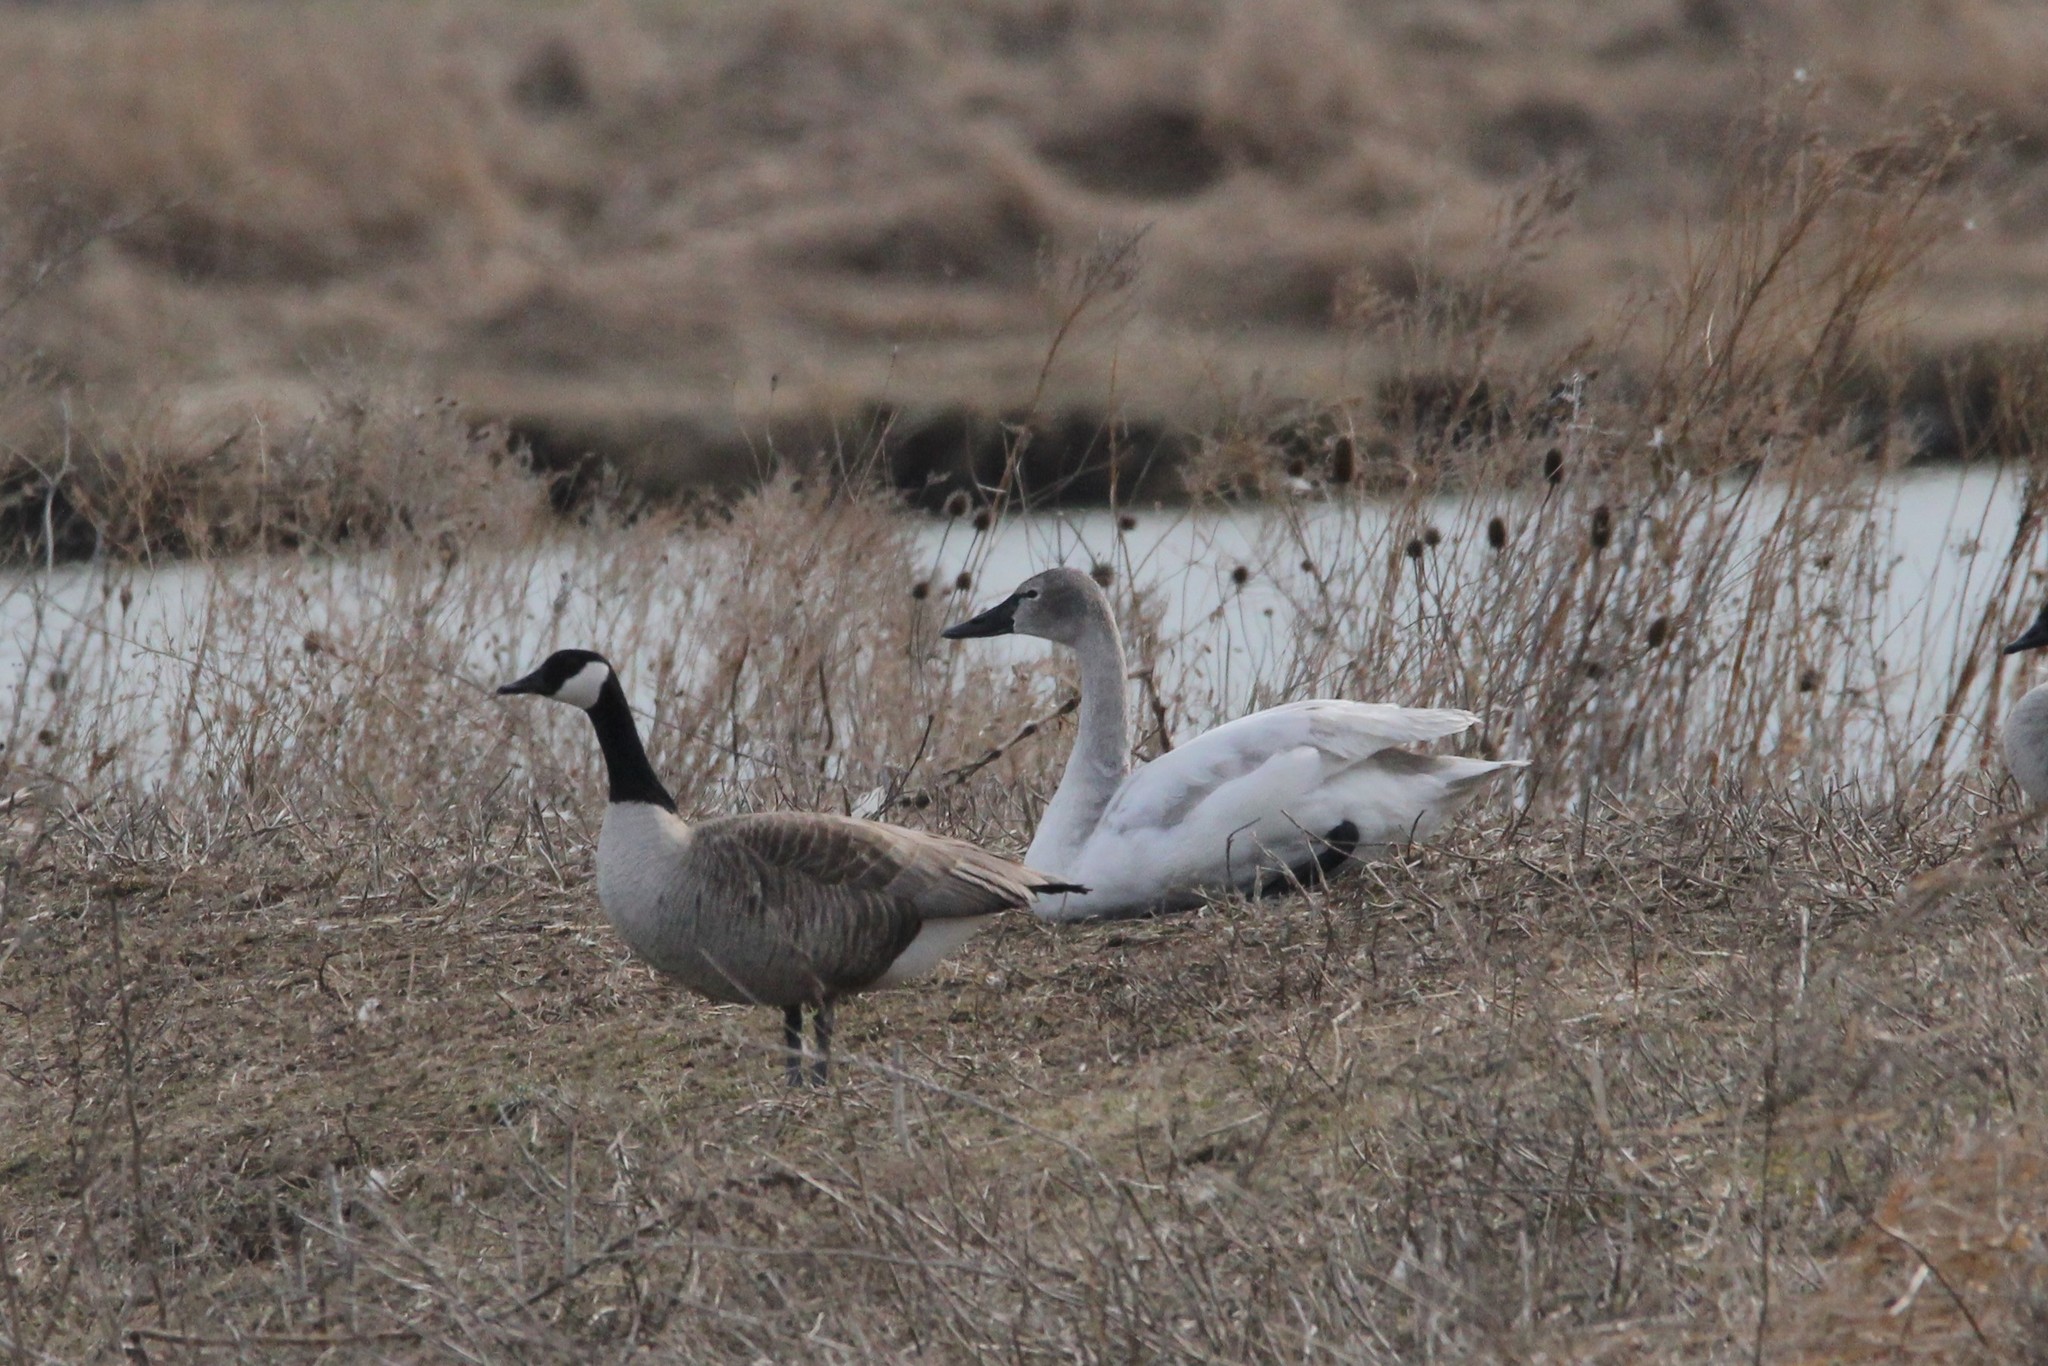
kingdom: Animalia
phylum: Chordata
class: Aves
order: Anseriformes
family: Anatidae
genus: Cygnus
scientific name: Cygnus buccinator
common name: Trumpeter swan
